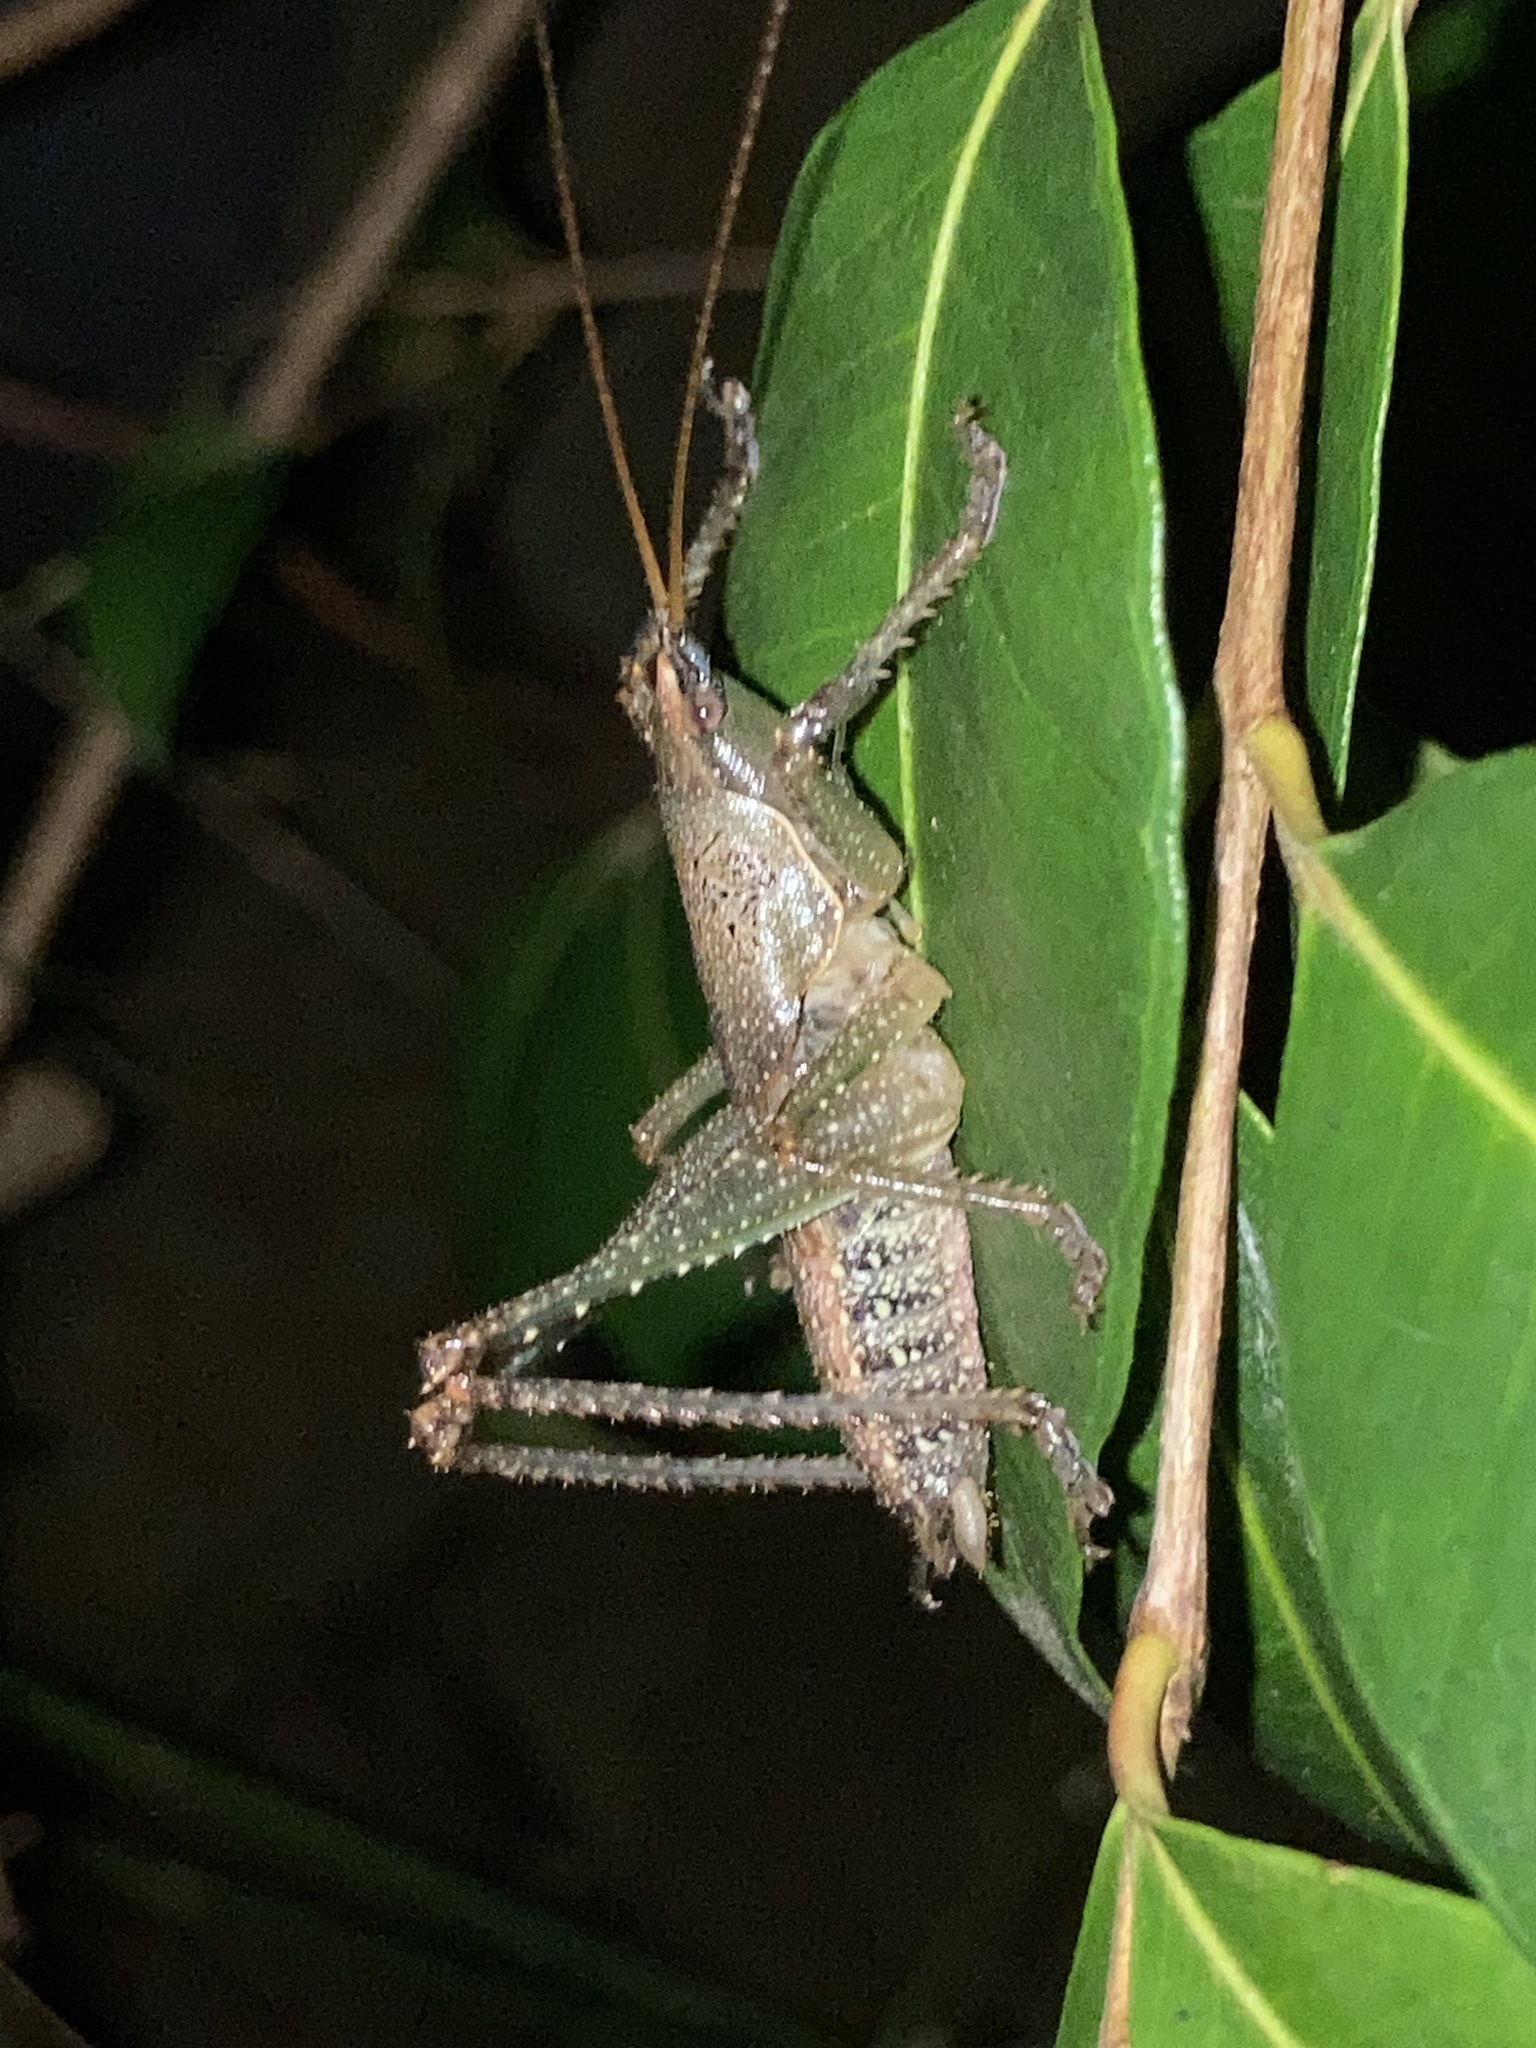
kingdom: Animalia
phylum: Arthropoda
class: Insecta
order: Orthoptera
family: Tettigoniidae
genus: Austrosalomona
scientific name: Austrosalomona falcata
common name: Olive-green coastal katydid
